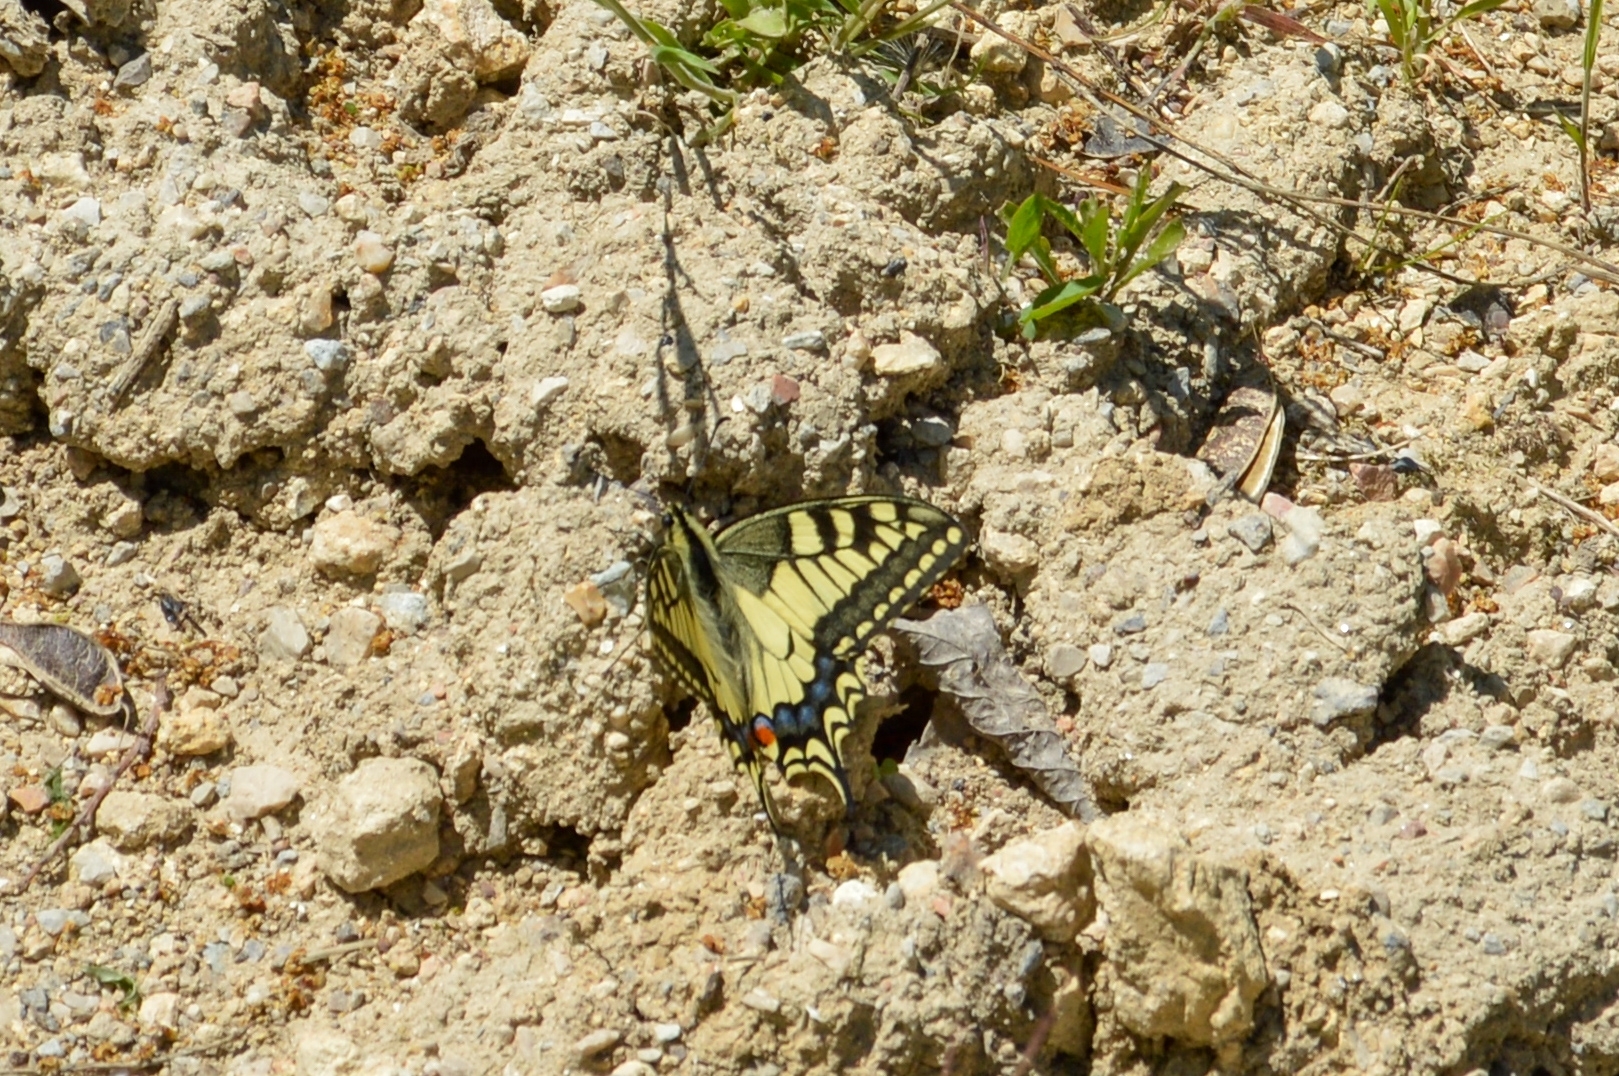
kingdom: Animalia
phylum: Arthropoda
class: Insecta
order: Lepidoptera
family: Papilionidae
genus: Papilio
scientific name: Papilio machaon
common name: Swallowtail
